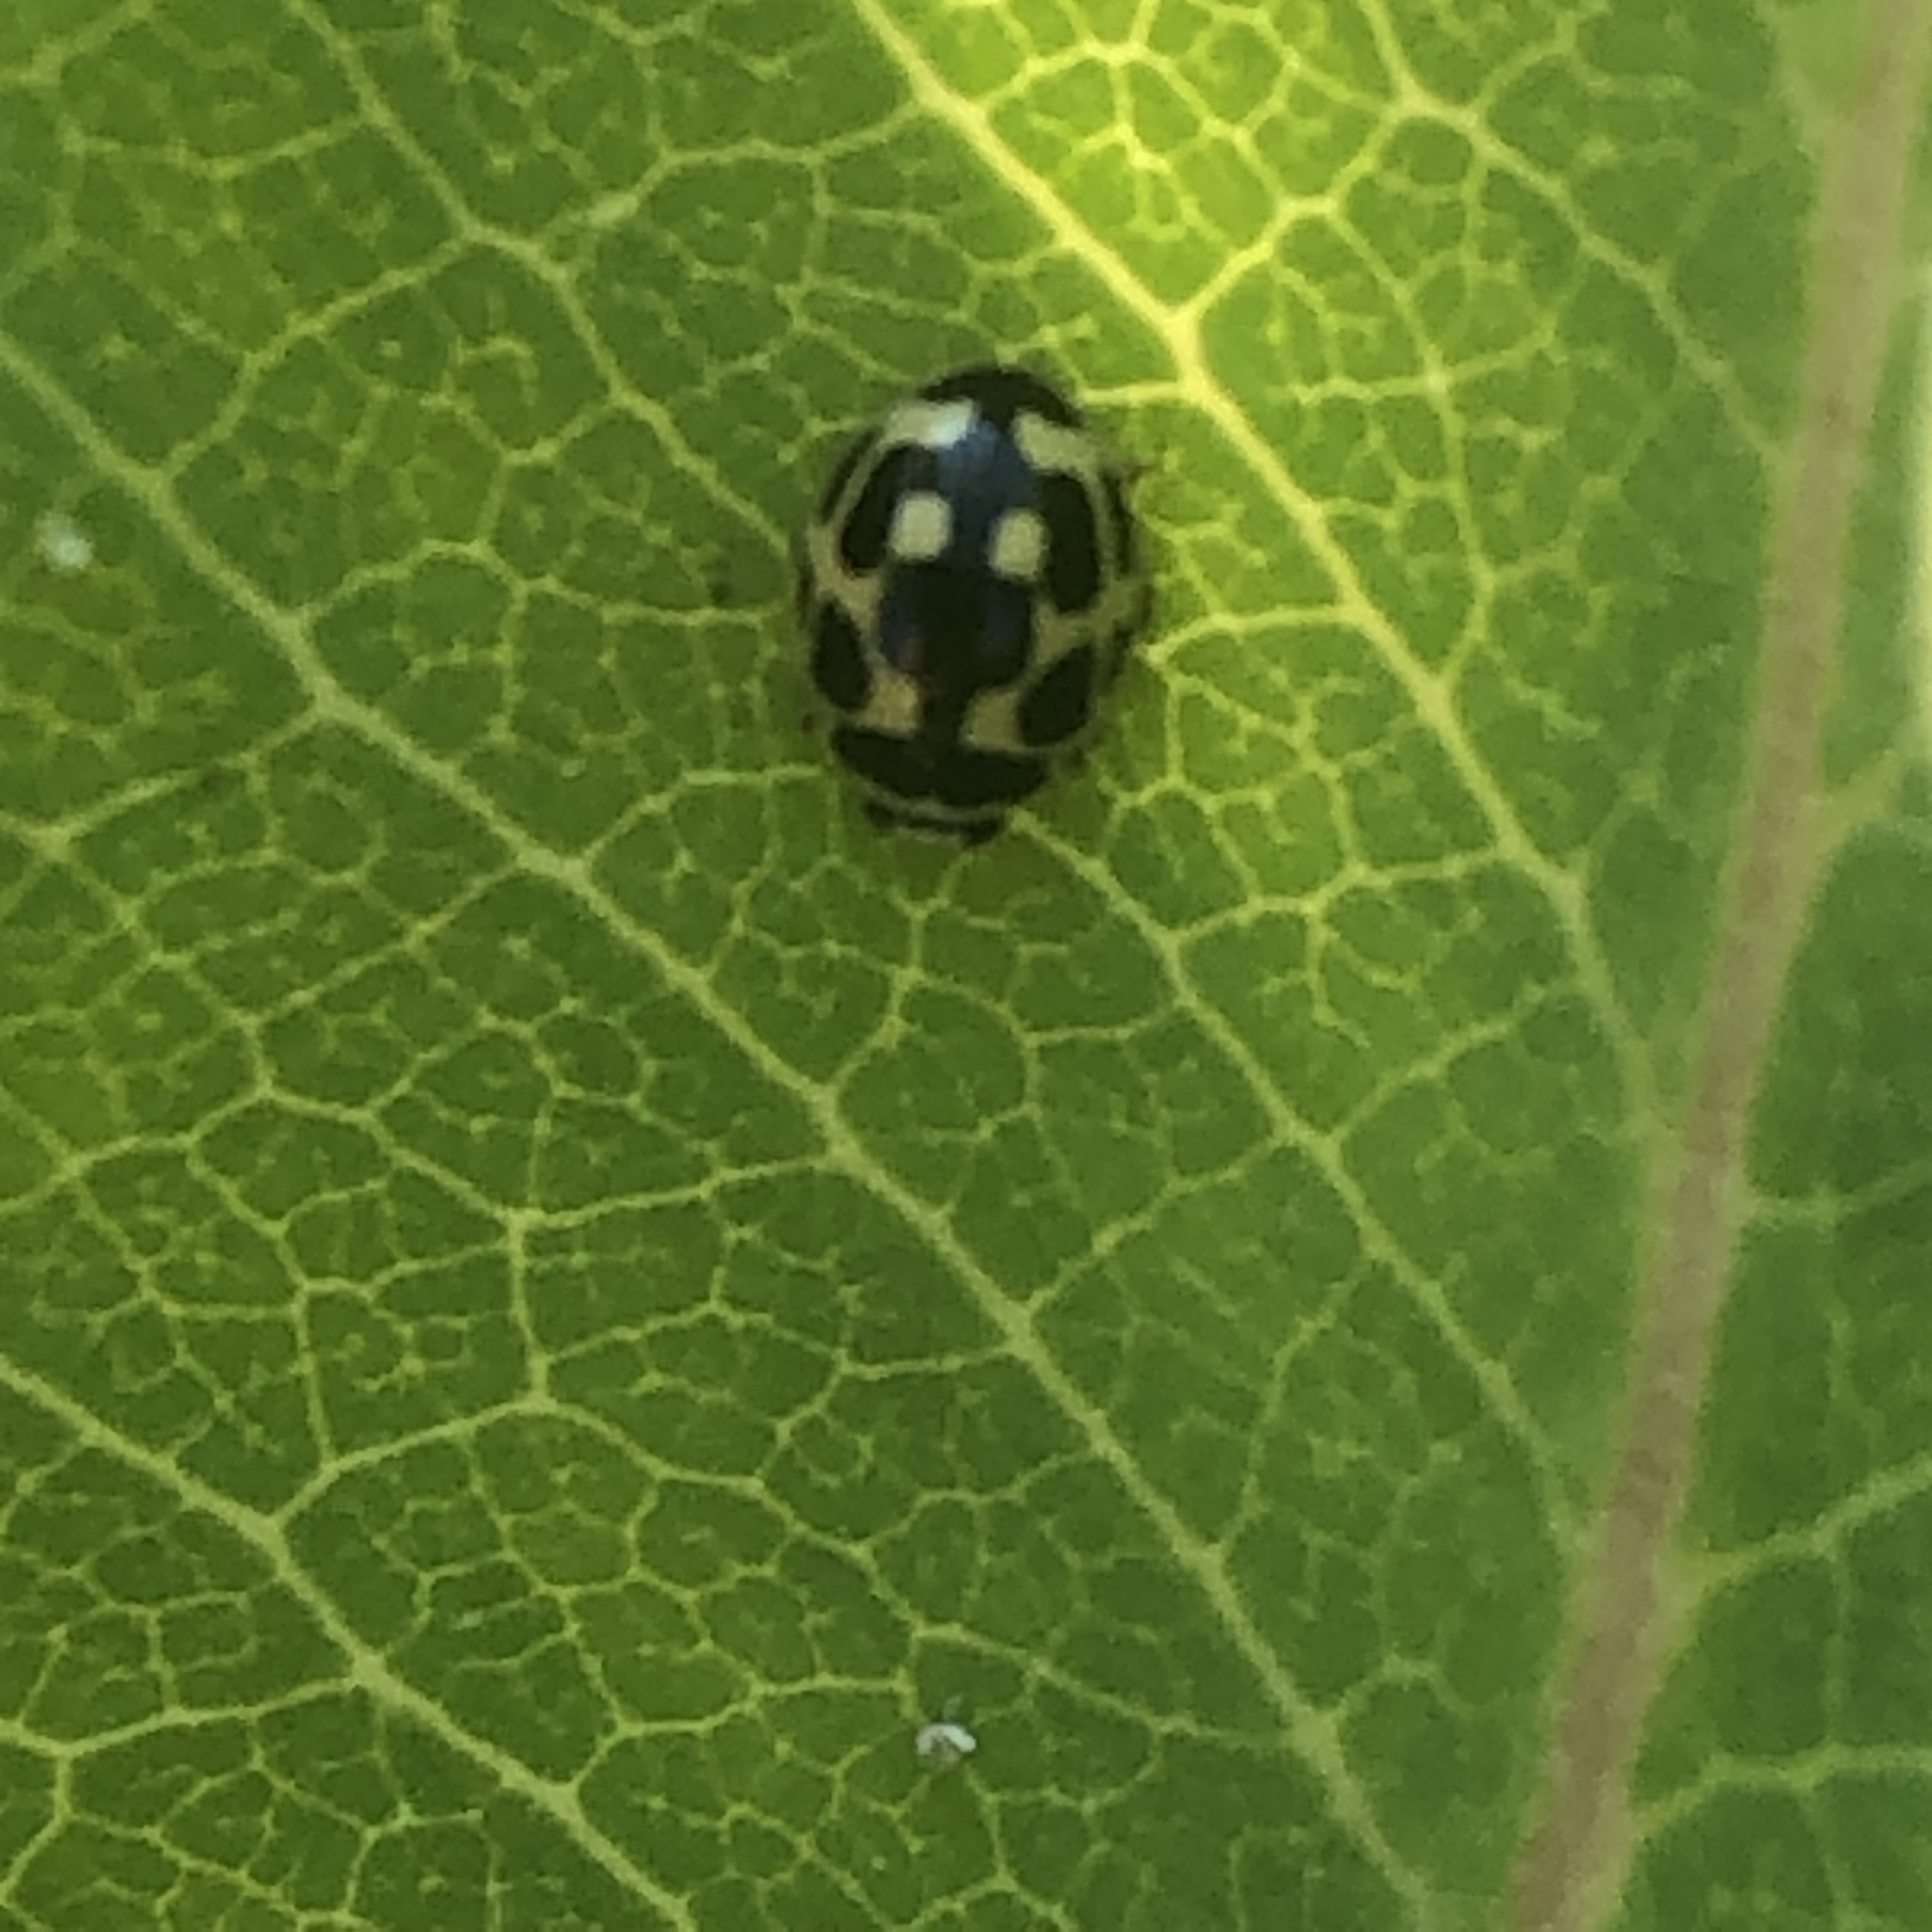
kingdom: Animalia
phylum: Arthropoda
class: Insecta
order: Coleoptera
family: Coccinellidae
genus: Propylaea
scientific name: Propylaea quatuordecimpunctata
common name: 14-spotted ladybird beetle
